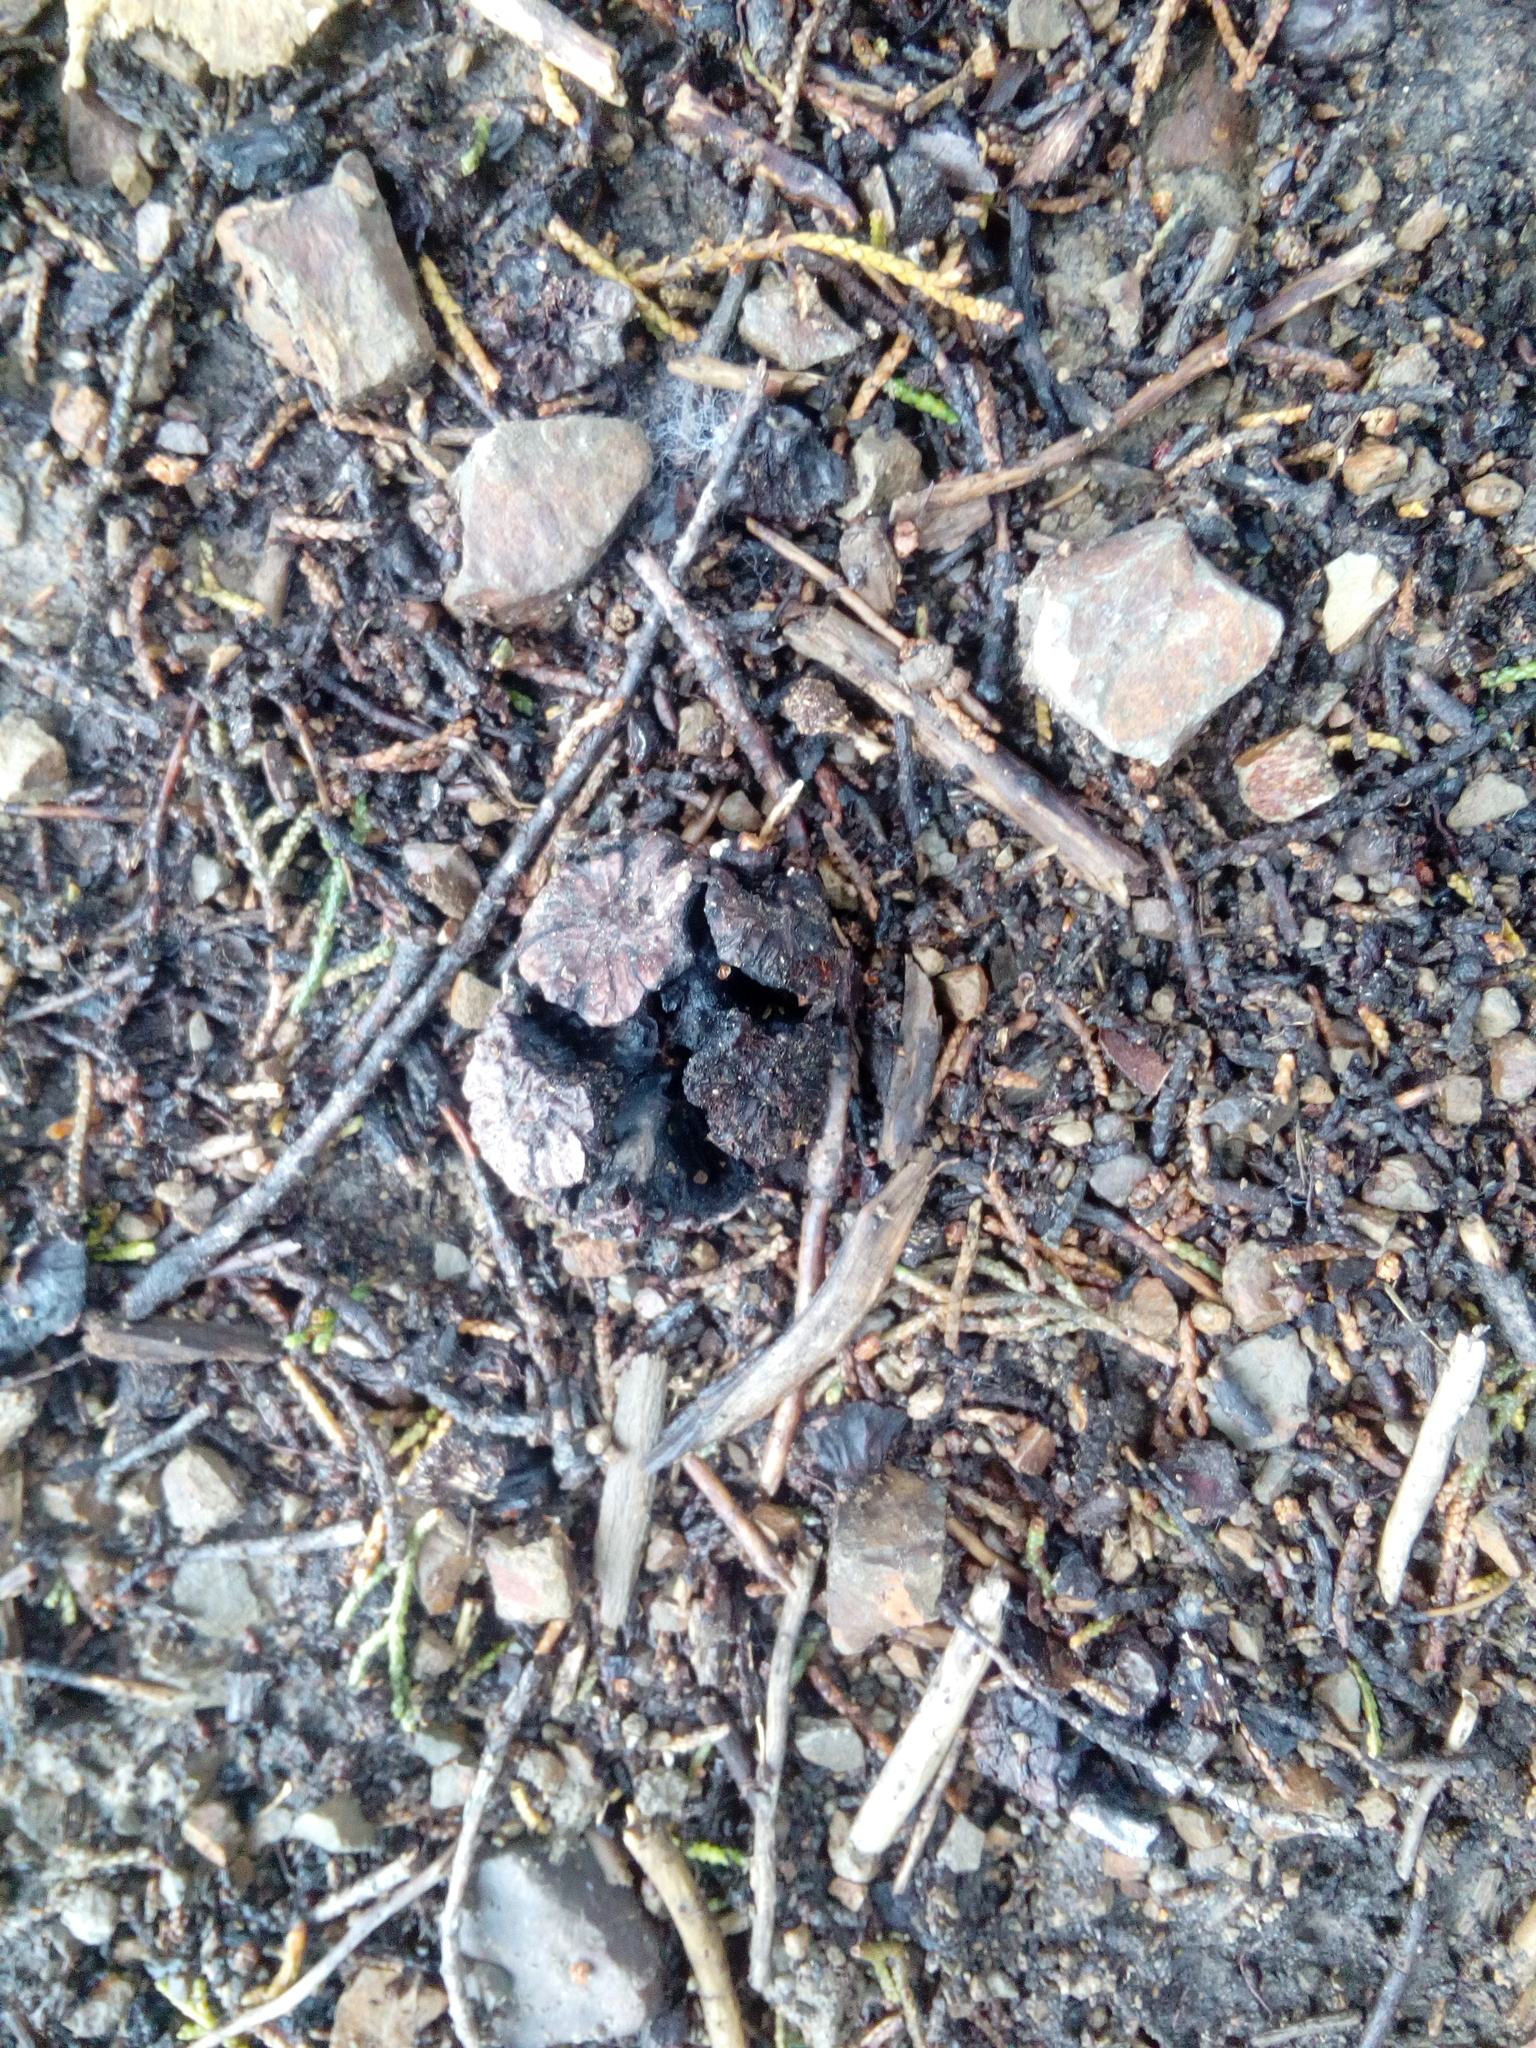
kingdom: Plantae
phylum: Tracheophyta
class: Pinopsida
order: Pinales
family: Cupressaceae
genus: Cupressus
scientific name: Cupressus macrocarpa
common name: Monterey cypress
